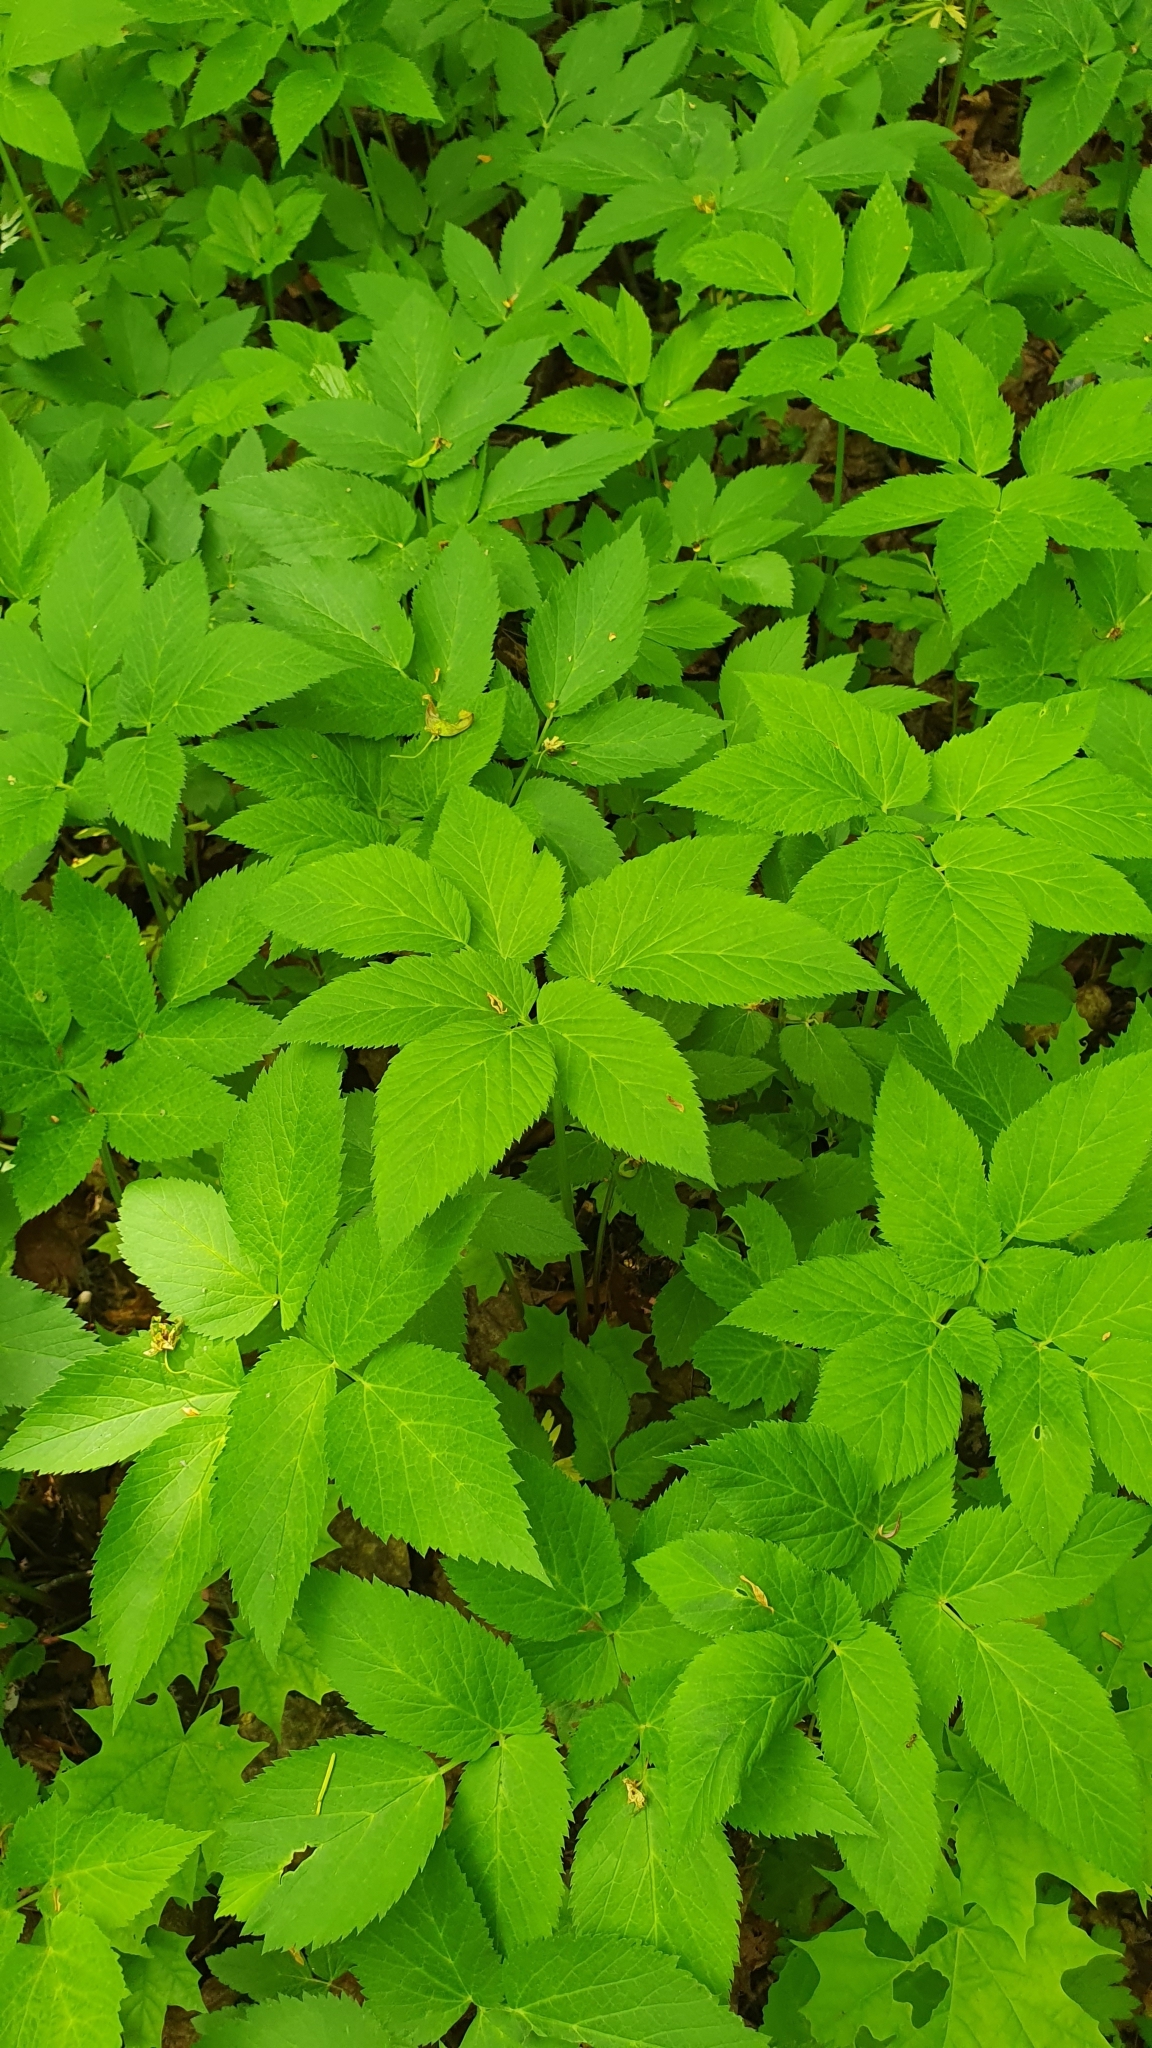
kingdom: Plantae
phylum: Tracheophyta
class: Magnoliopsida
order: Apiales
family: Apiaceae
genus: Aegopodium
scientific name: Aegopodium podagraria
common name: Ground-elder
